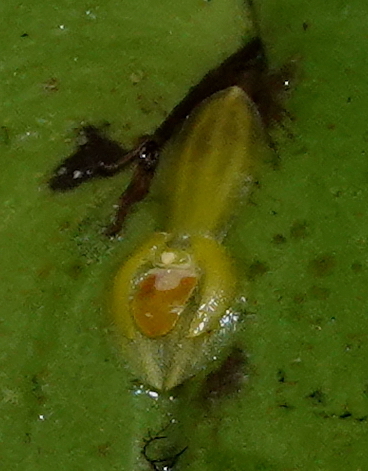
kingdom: Plantae
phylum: Tracheophyta
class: Liliopsida
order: Asparagales
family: Orchidaceae
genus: Pleurothallis
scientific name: Pleurothallis cordata
